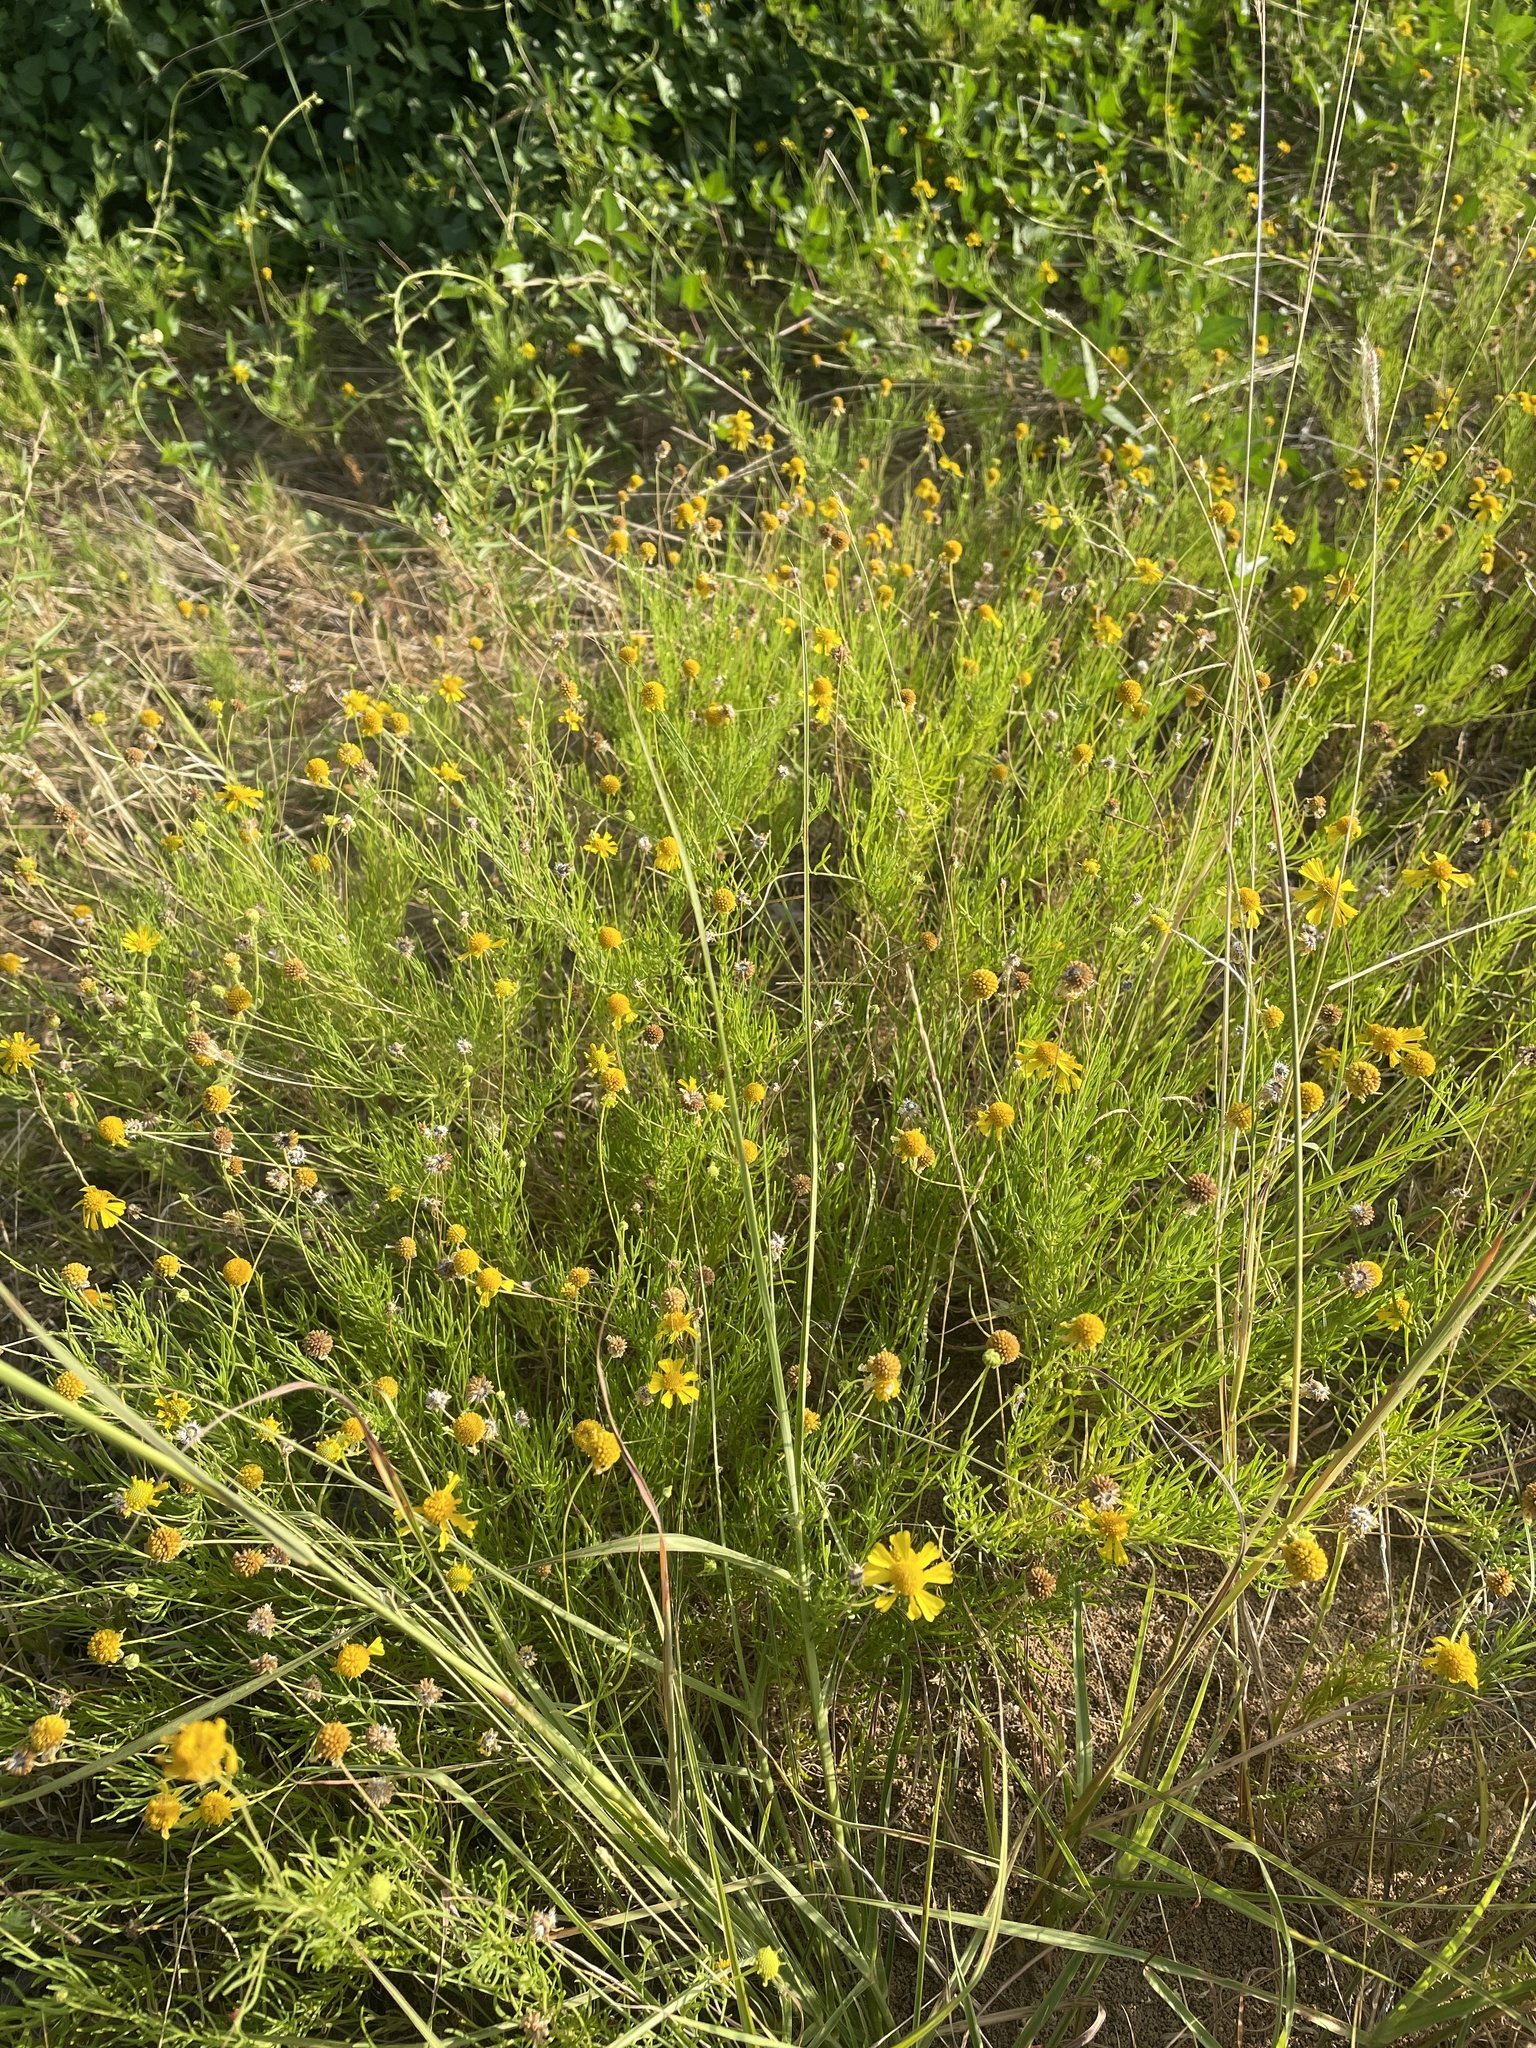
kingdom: Plantae
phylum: Tracheophyta
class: Magnoliopsida
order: Asterales
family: Asteraceae
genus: Helenium
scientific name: Helenium amarum
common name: Bitter sneezeweed
